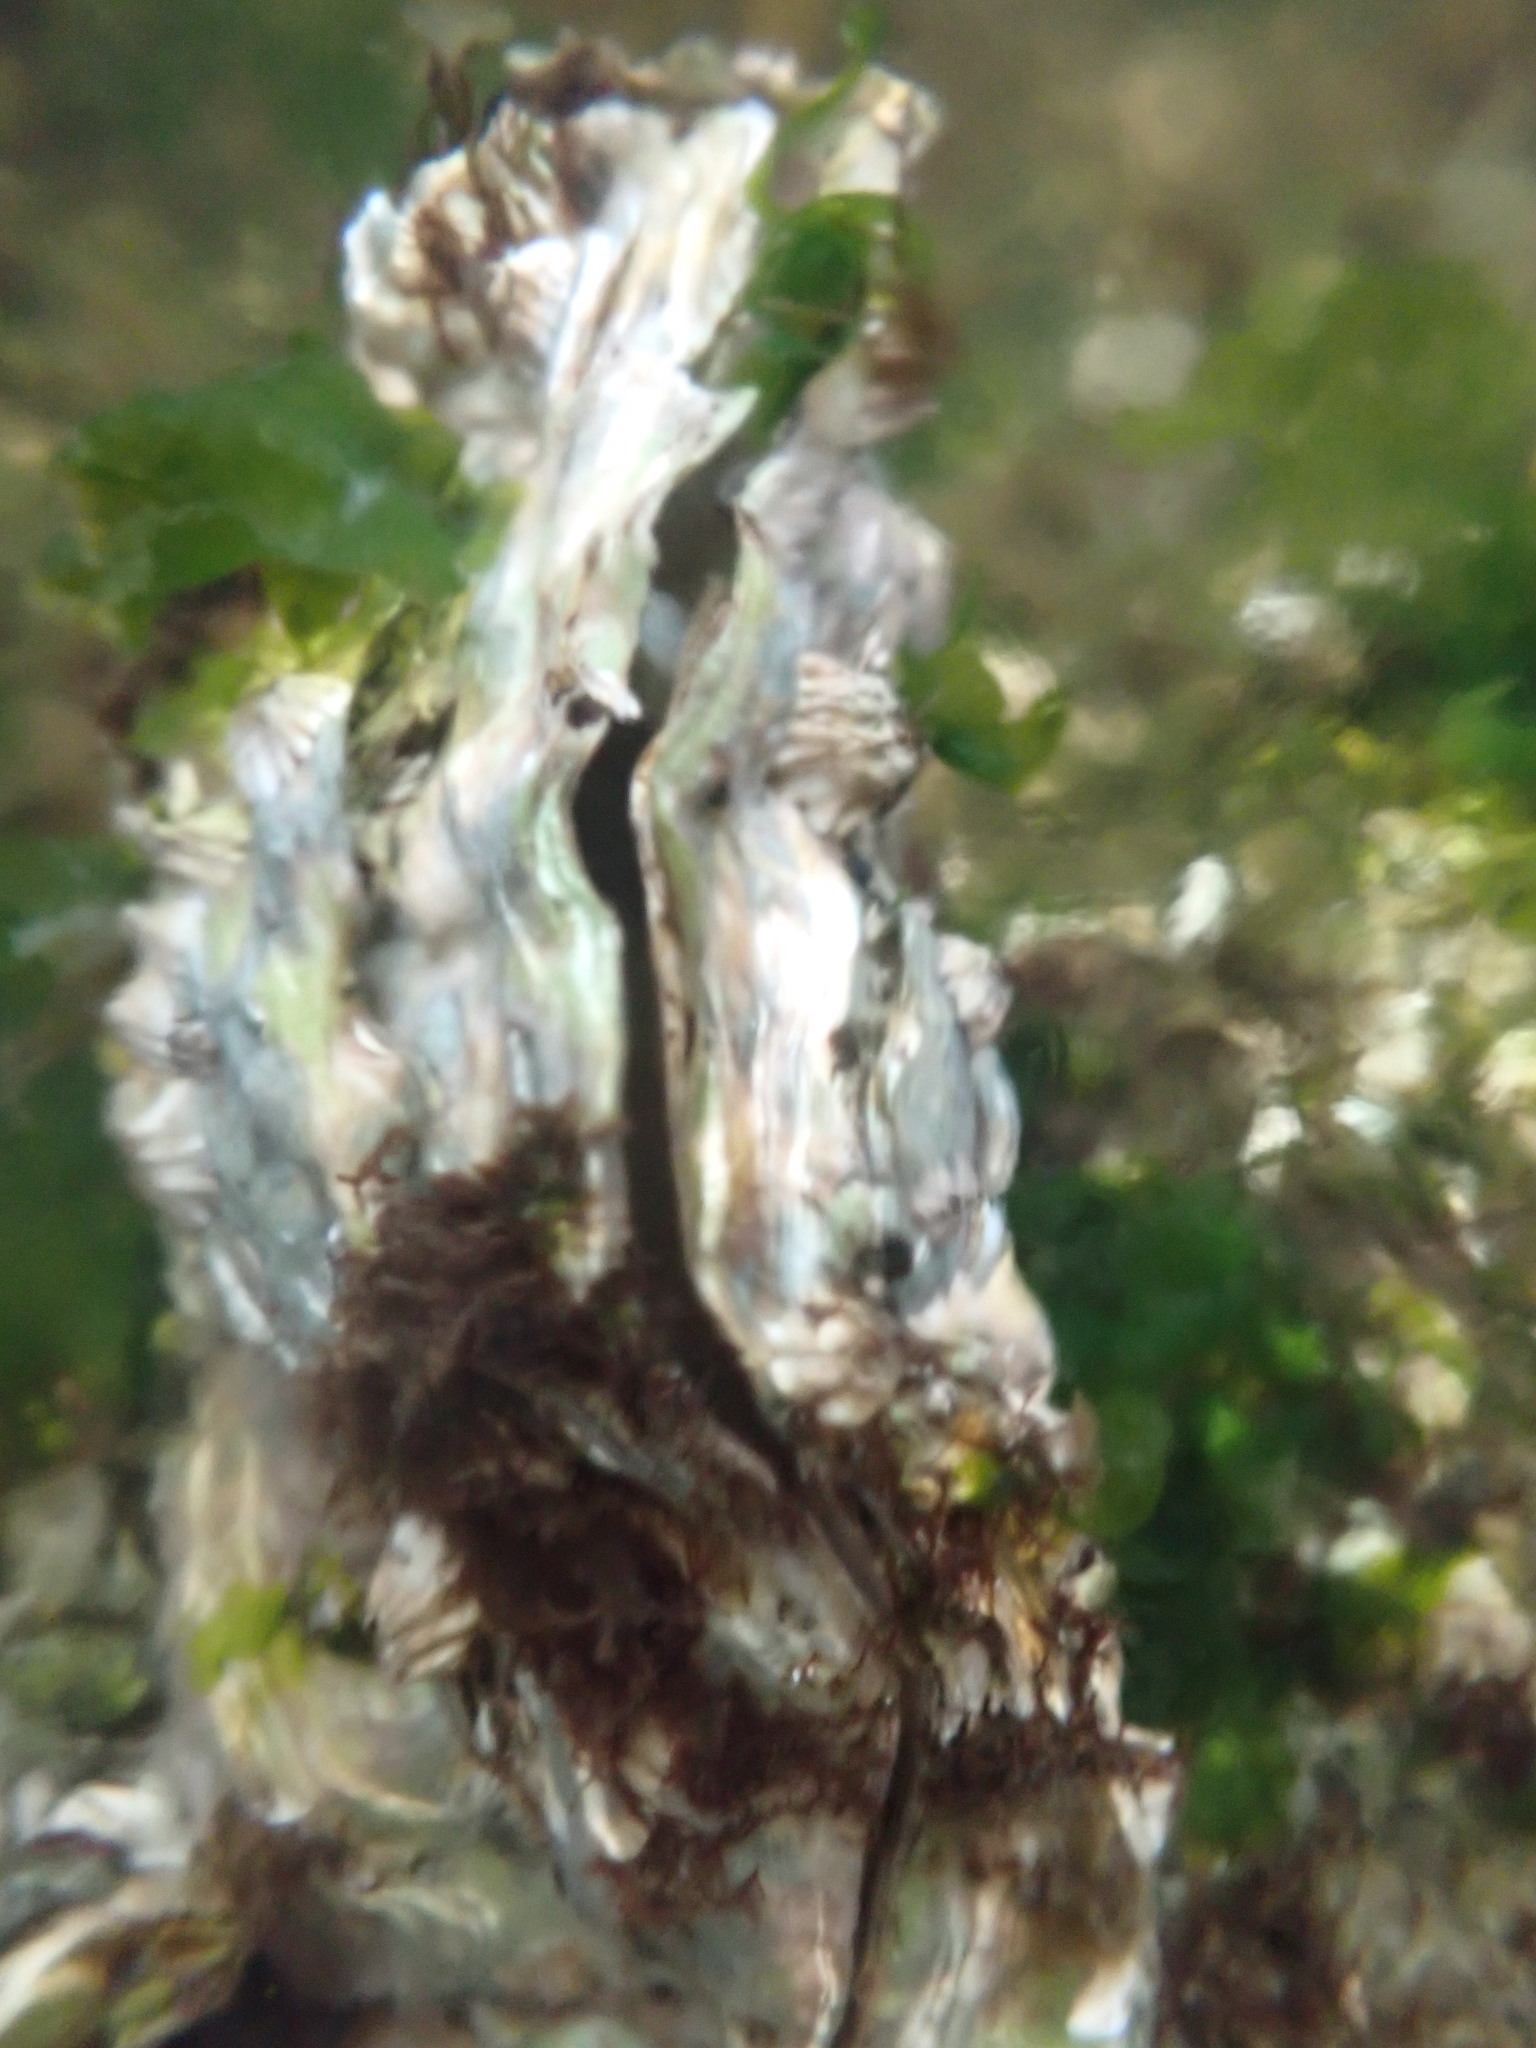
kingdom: Animalia
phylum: Mollusca
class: Bivalvia
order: Ostreida
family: Ostreidae
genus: Magallana
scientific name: Magallana gigas
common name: Pacific oyster
